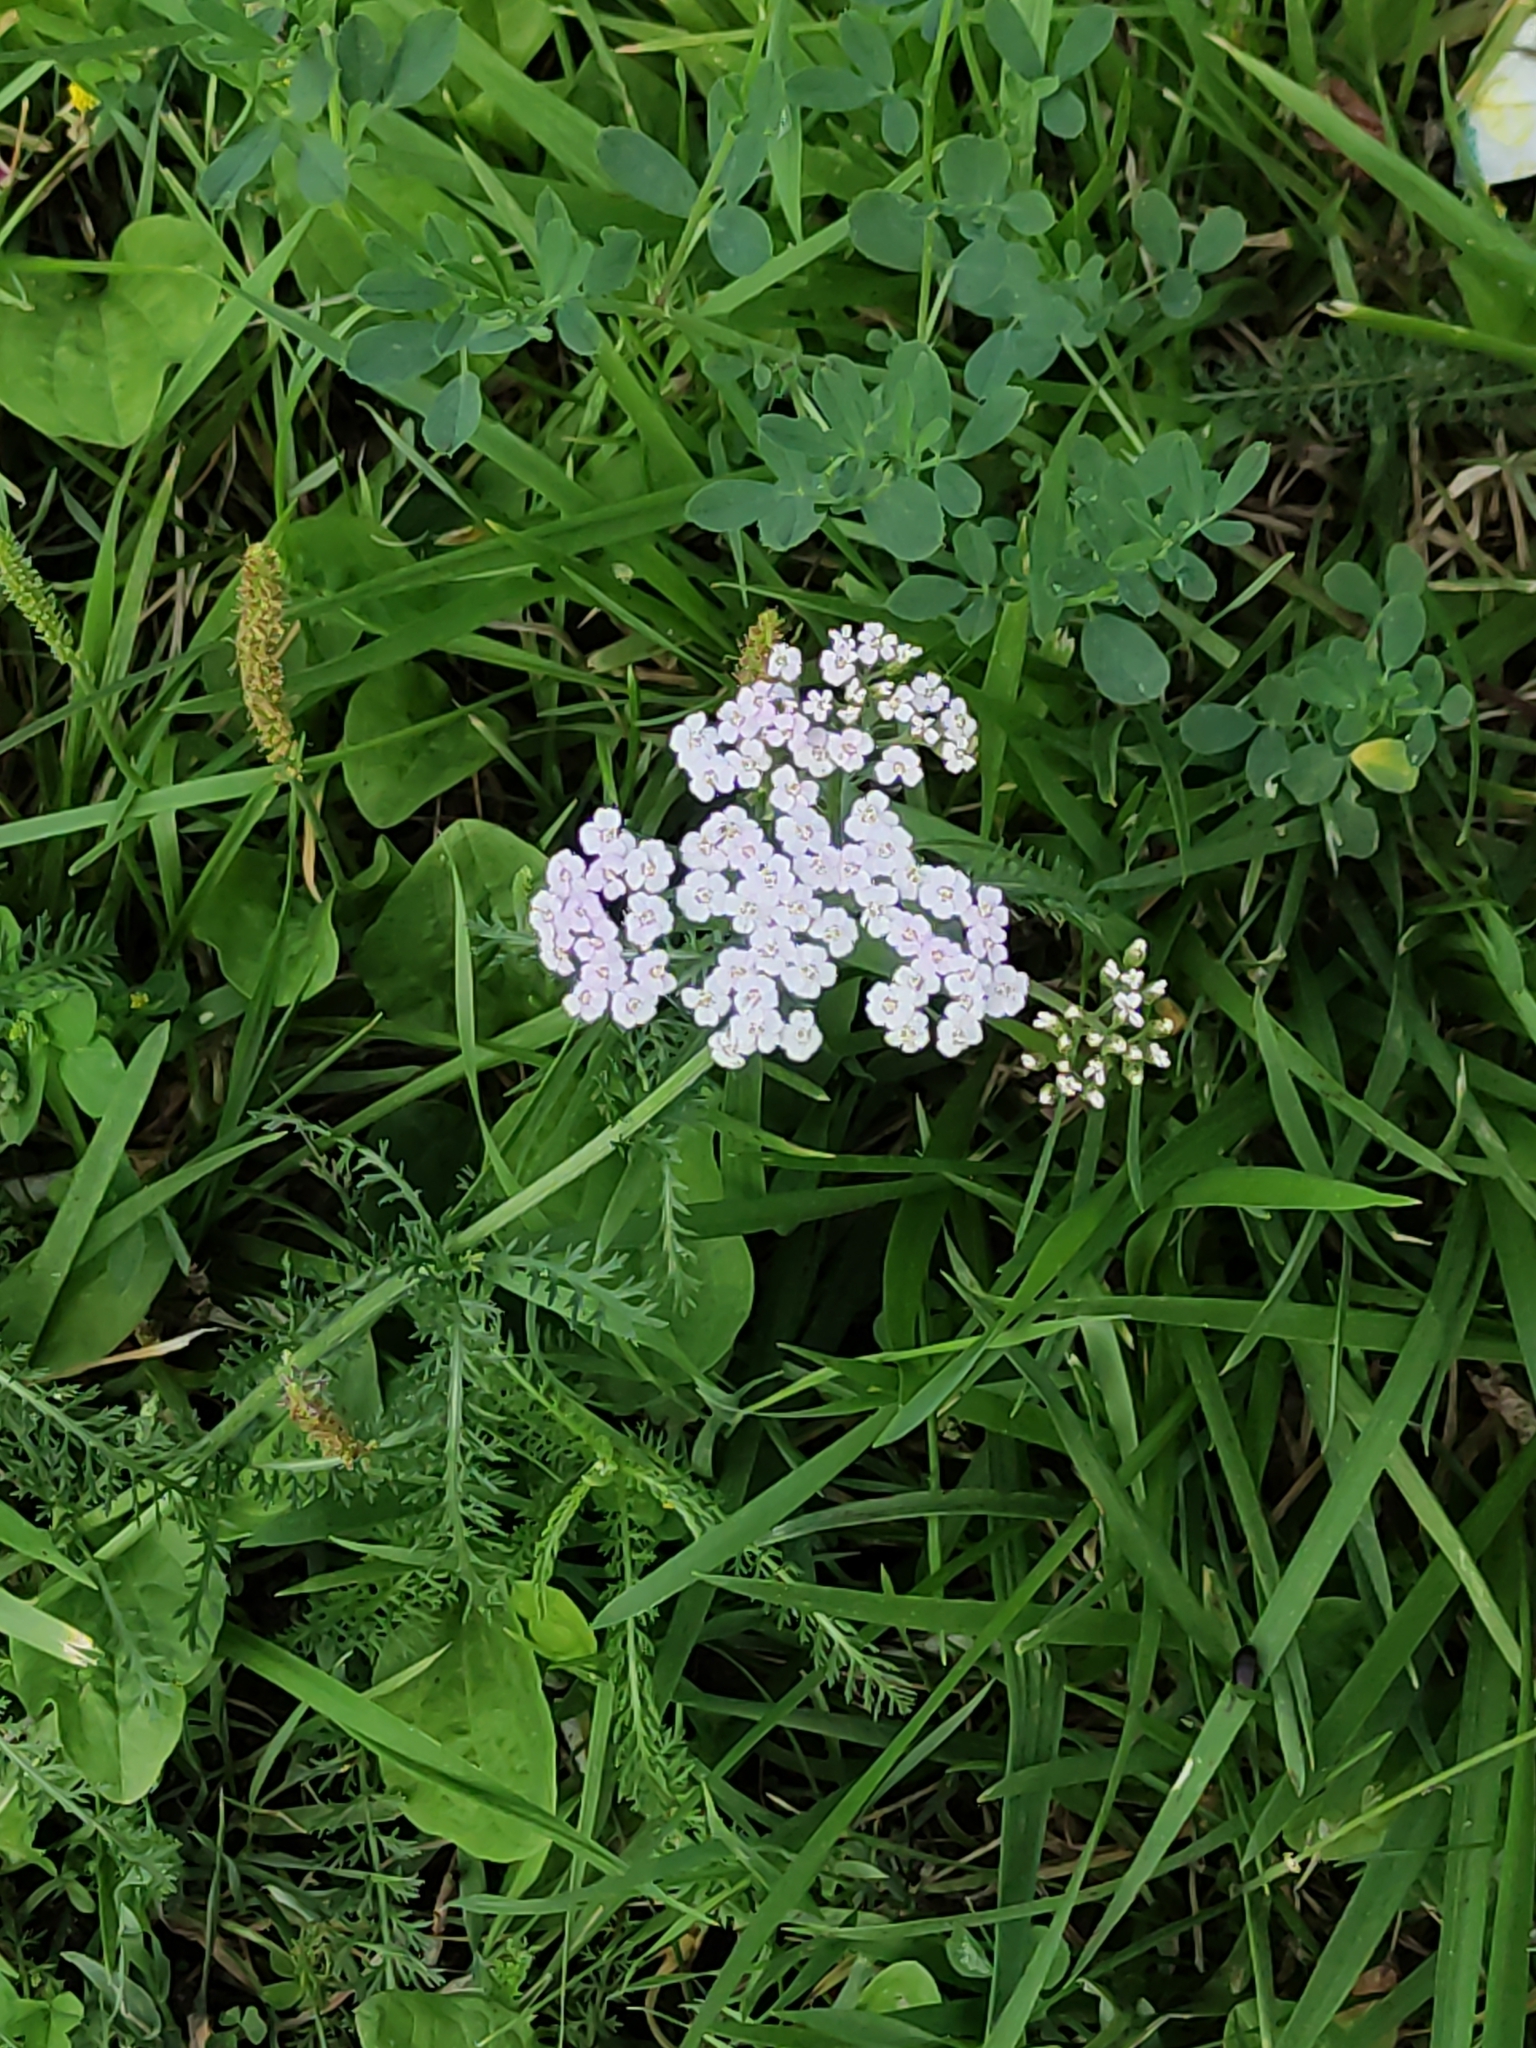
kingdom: Plantae
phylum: Tracheophyta
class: Magnoliopsida
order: Asterales
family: Asteraceae
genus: Achillea
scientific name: Achillea millefolium
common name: Yarrow
